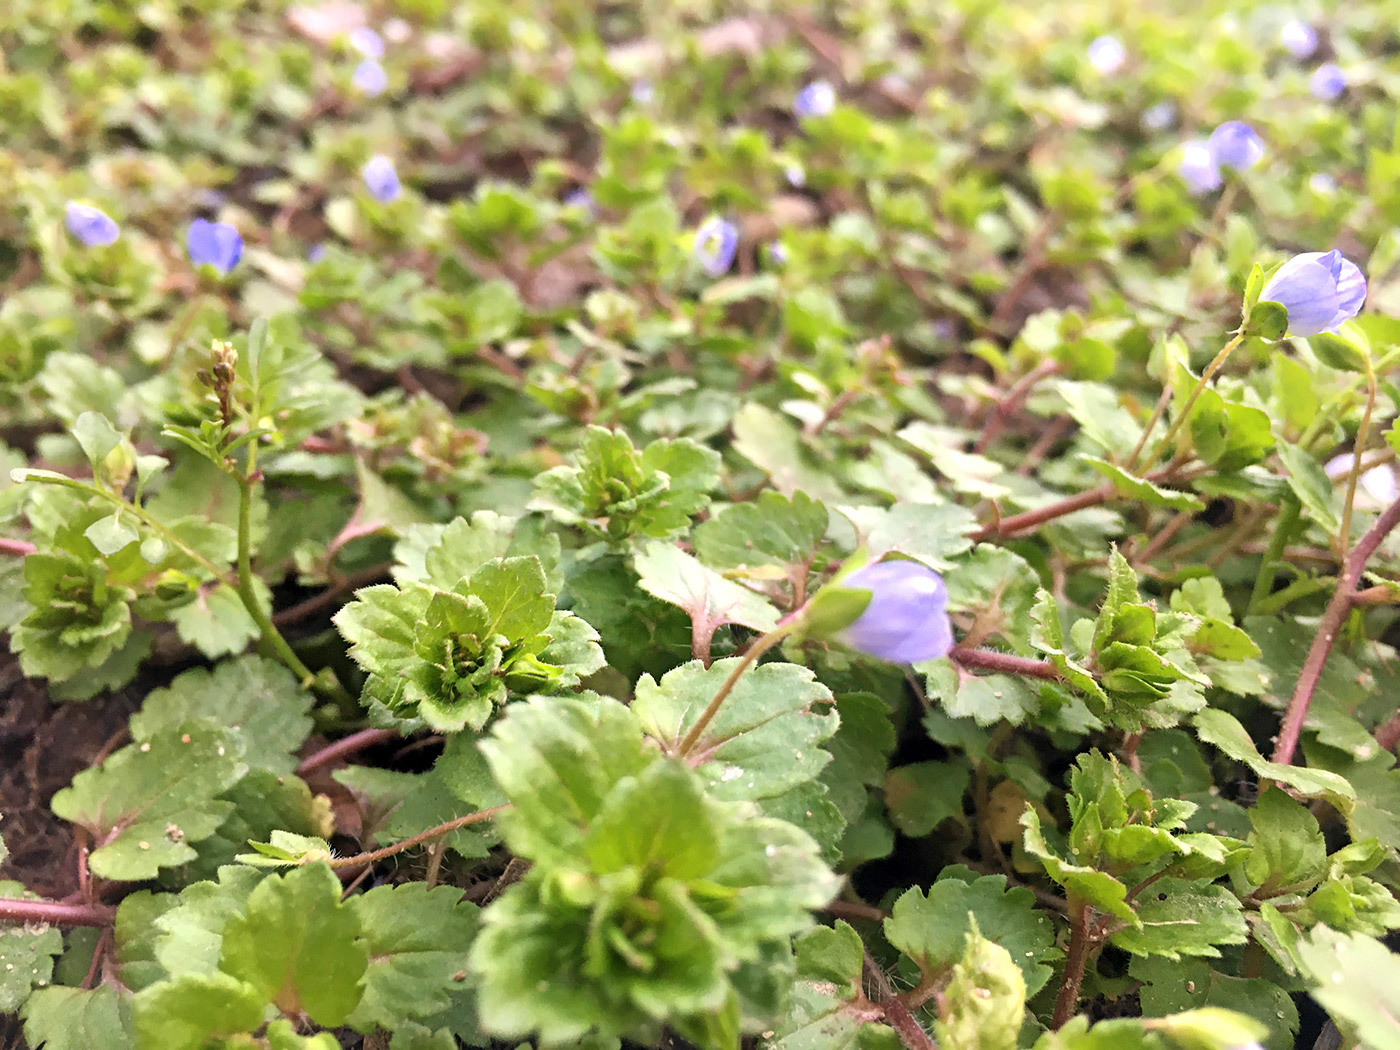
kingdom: Plantae
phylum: Tracheophyta
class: Magnoliopsida
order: Lamiales
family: Plantaginaceae
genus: Veronica
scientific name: Veronica persica
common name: Common field-speedwell
